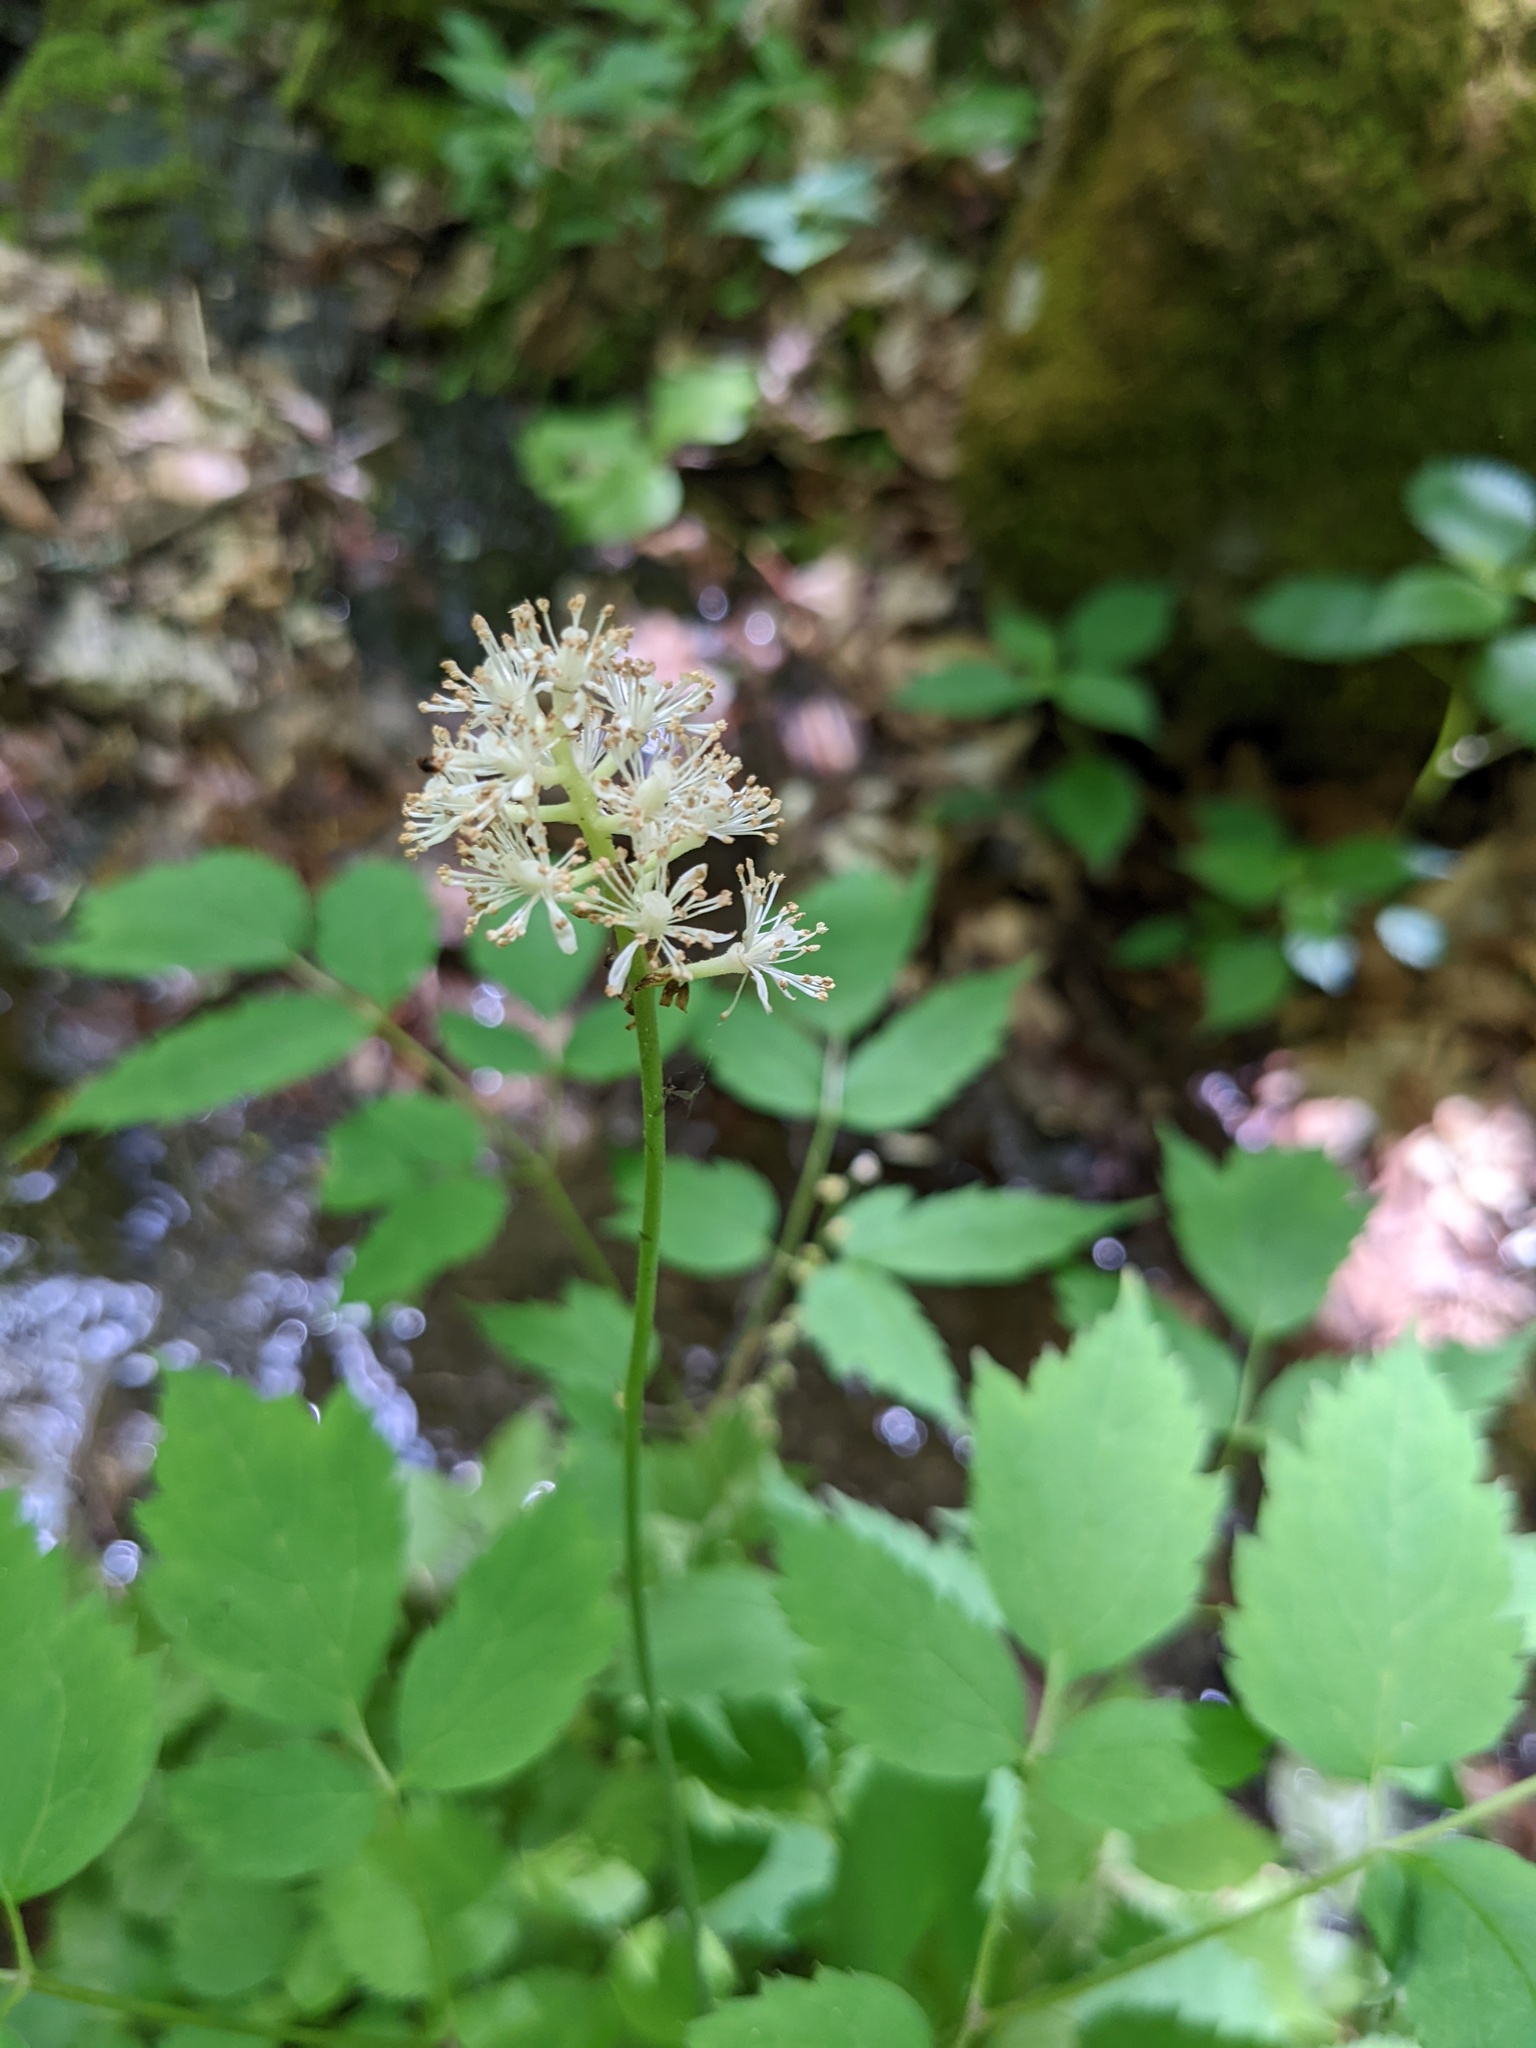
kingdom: Plantae
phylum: Tracheophyta
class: Magnoliopsida
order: Ranunculales
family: Ranunculaceae
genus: Actaea
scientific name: Actaea pachypoda
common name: Doll's-eyes
